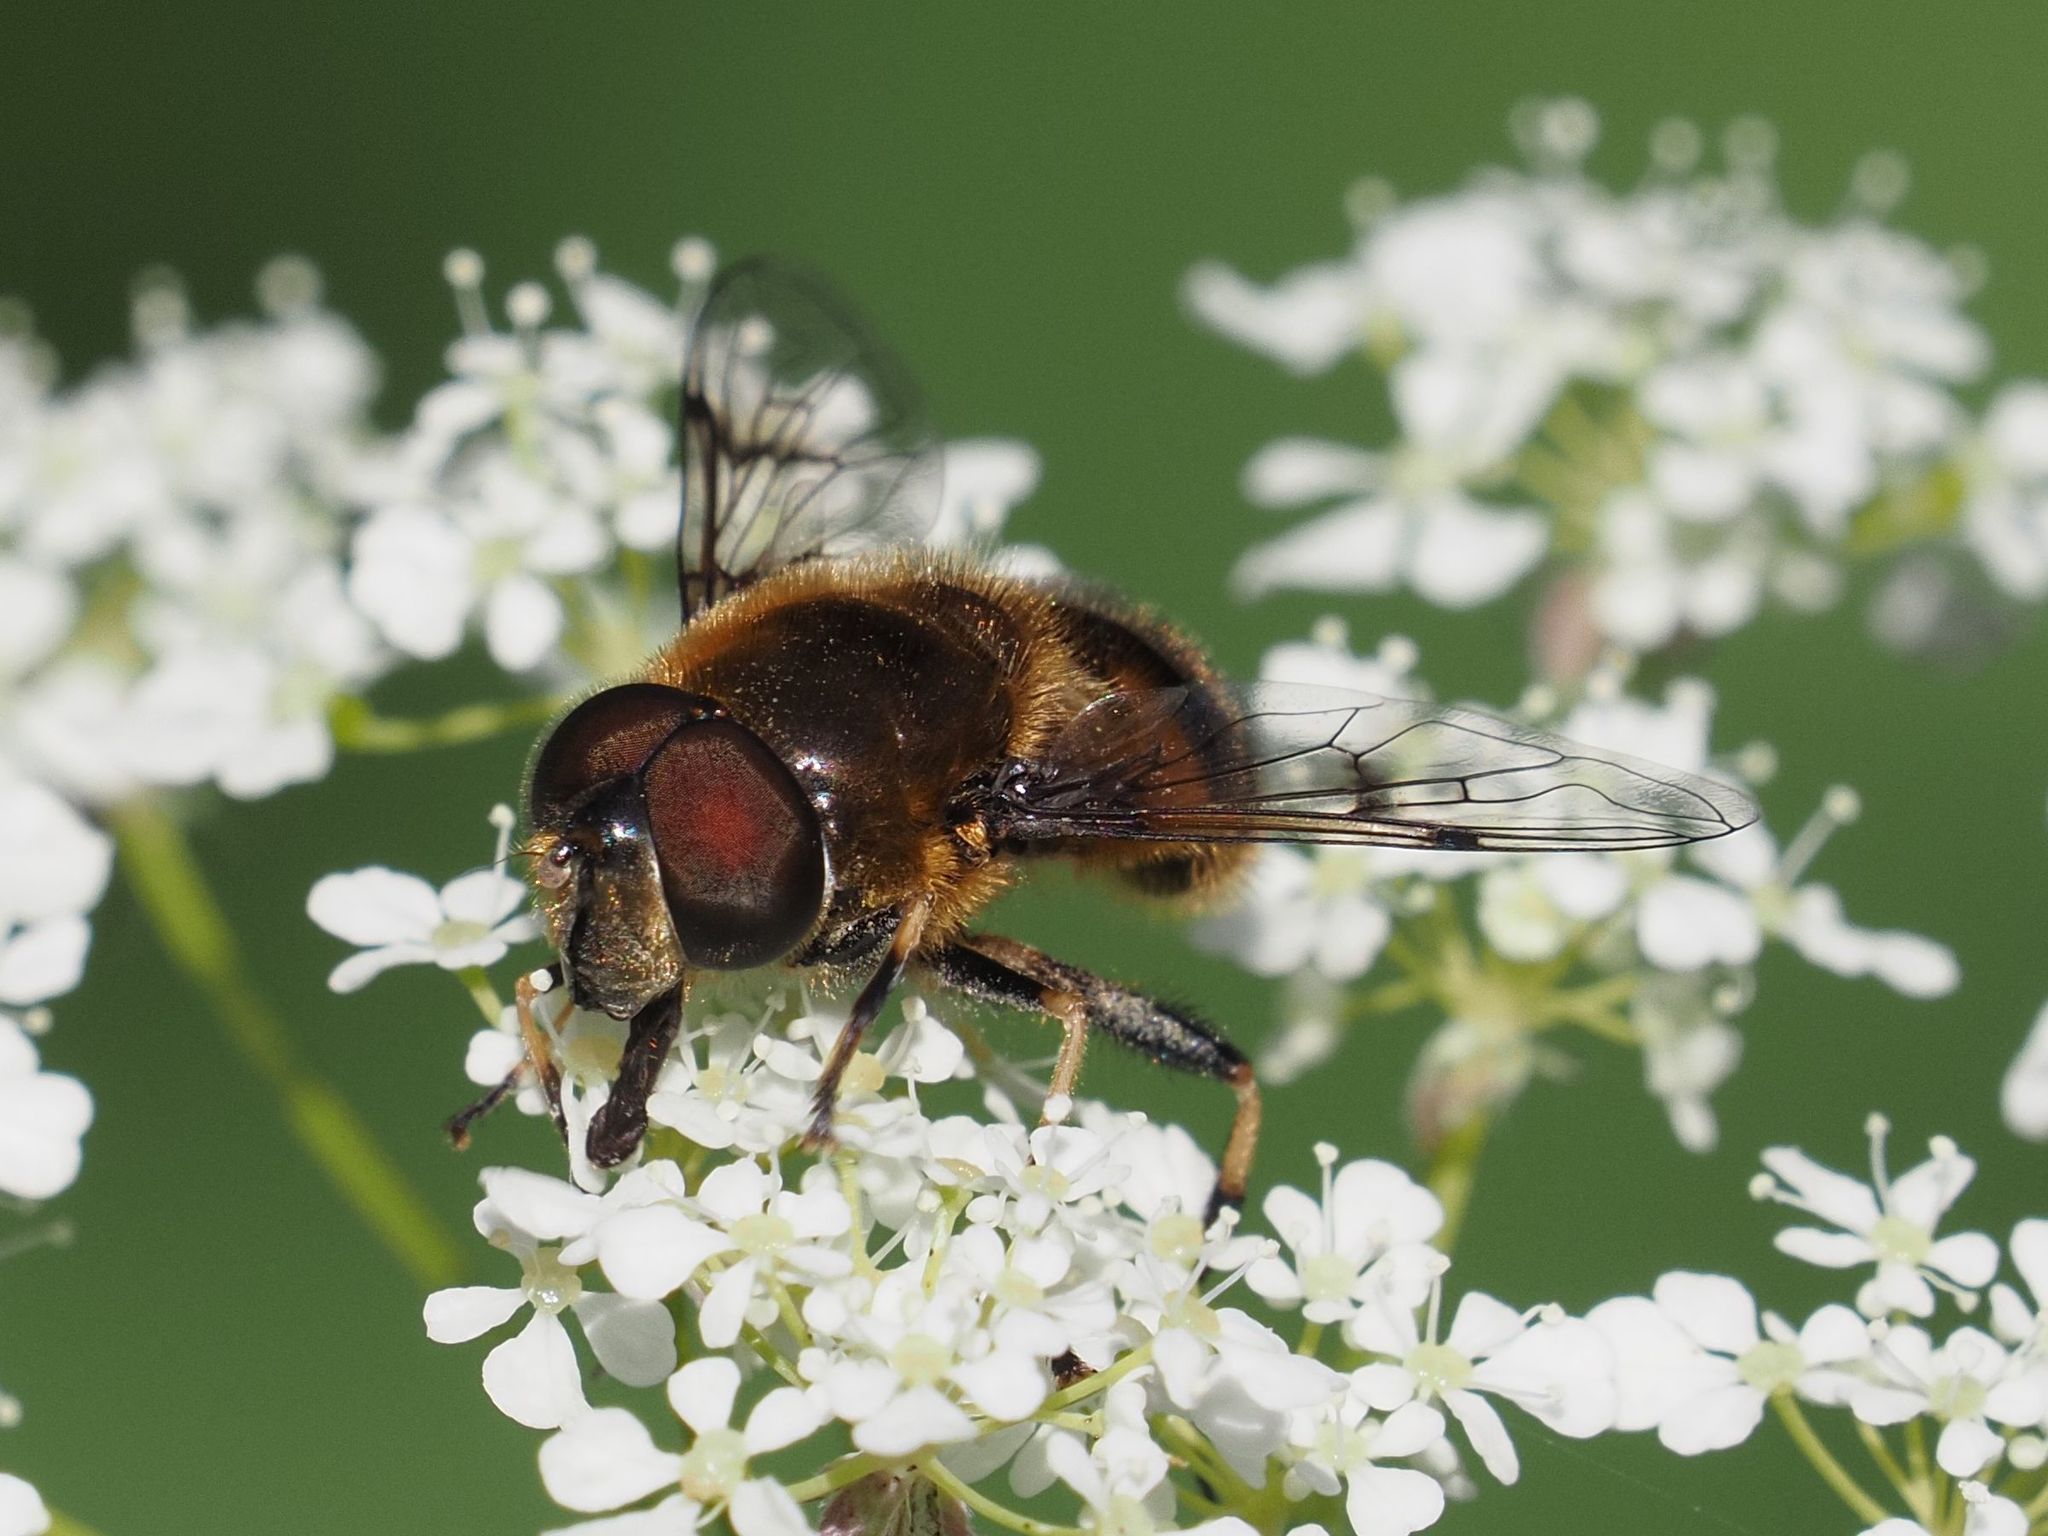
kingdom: Animalia
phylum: Arthropoda
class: Insecta
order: Diptera
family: Syrphidae
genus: Eristalis
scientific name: Eristalis rupium
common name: Hover fly
